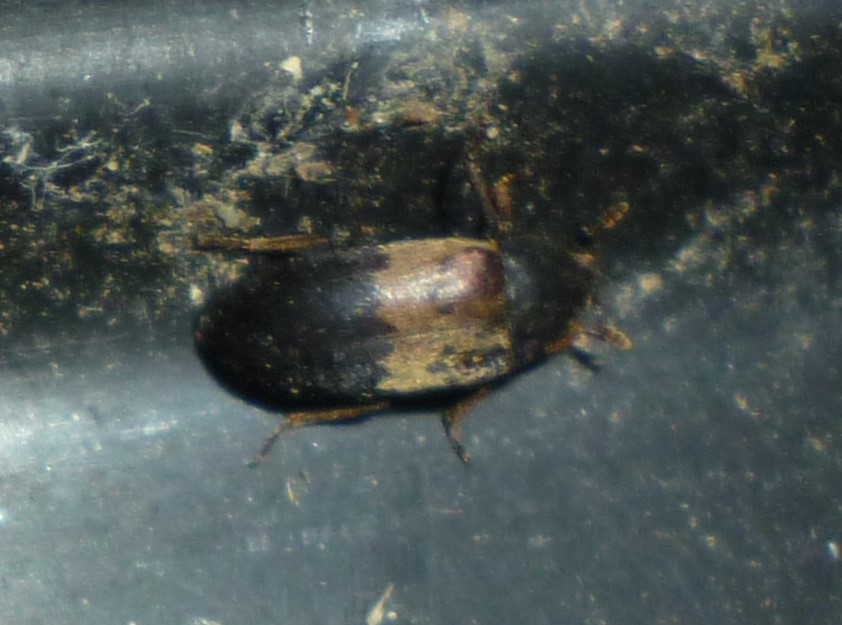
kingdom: Animalia
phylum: Arthropoda
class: Insecta
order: Coleoptera
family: Dermestidae
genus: Dermestes
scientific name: Dermestes lardarius
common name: Larder beetle
